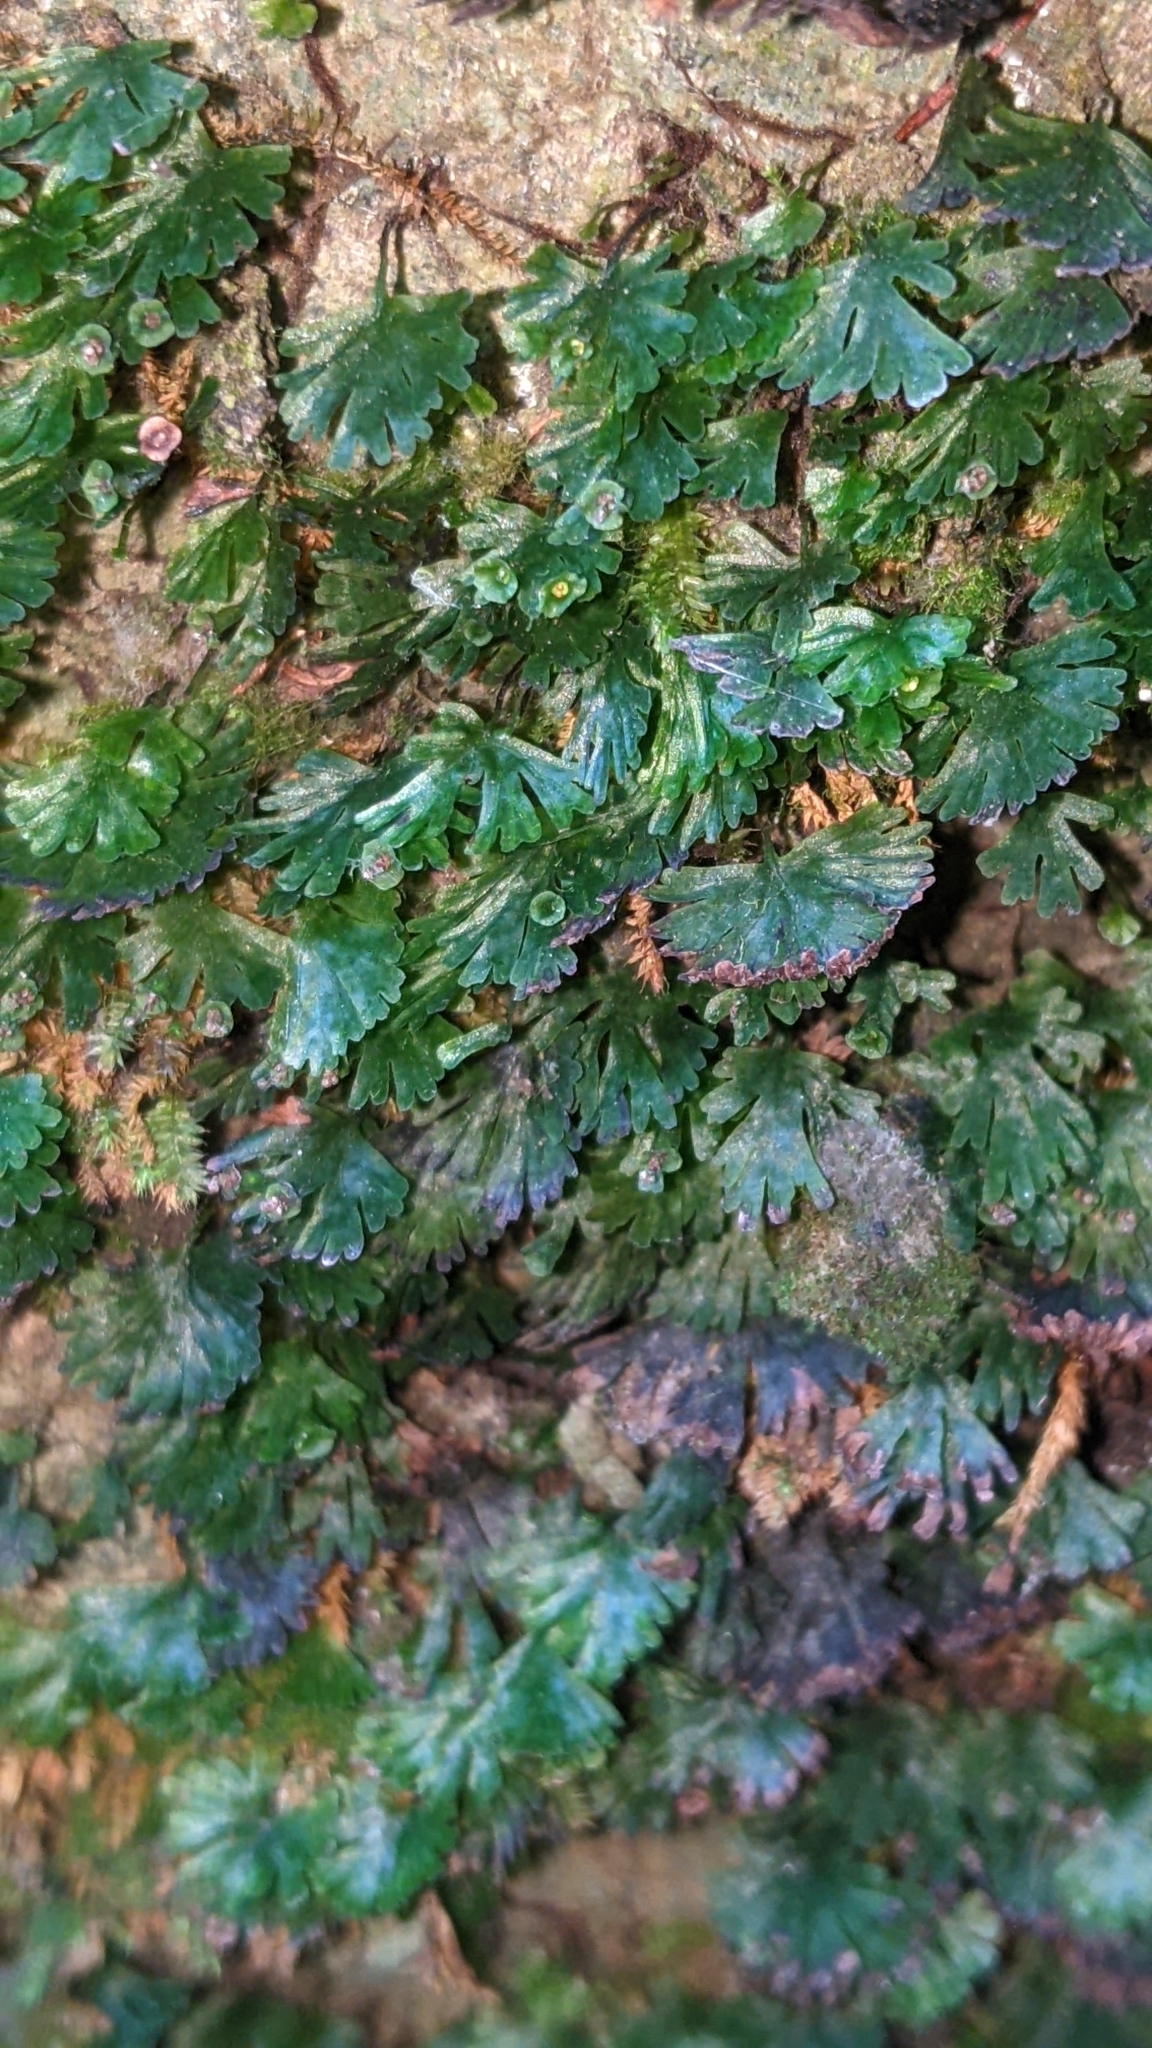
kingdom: Plantae
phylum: Tracheophyta
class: Polypodiopsida
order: Hymenophyllales
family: Hymenophyllaceae
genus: Crepidomanes
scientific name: Crepidomanes parvulum
